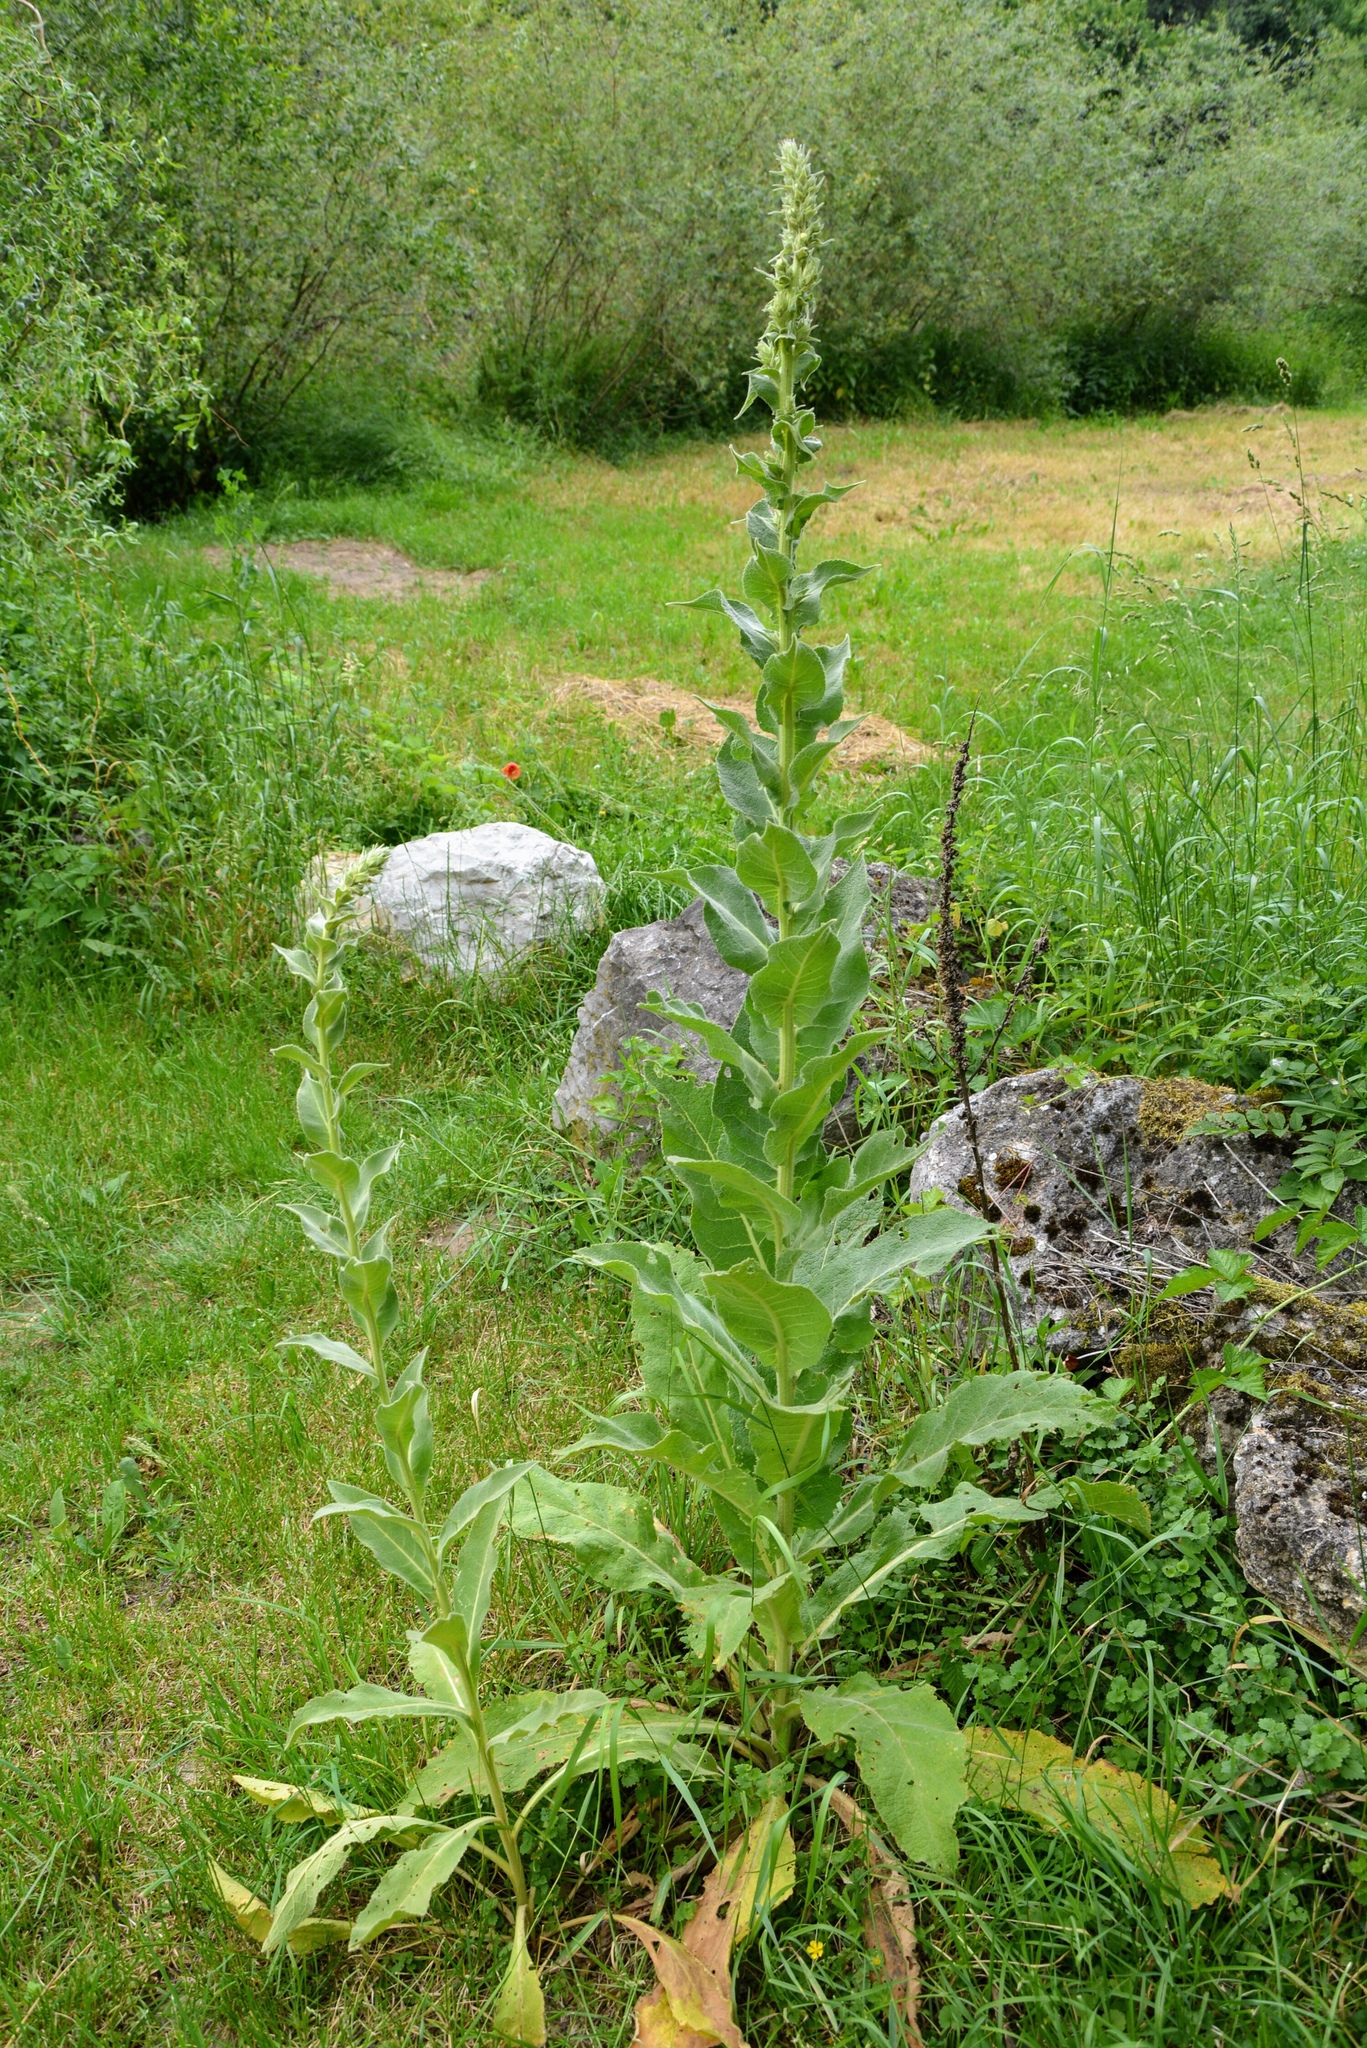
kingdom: Plantae
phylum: Tracheophyta
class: Magnoliopsida
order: Lamiales
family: Scrophulariaceae
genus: Verbascum
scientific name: Verbascum phlomoides
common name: Orange mullein
